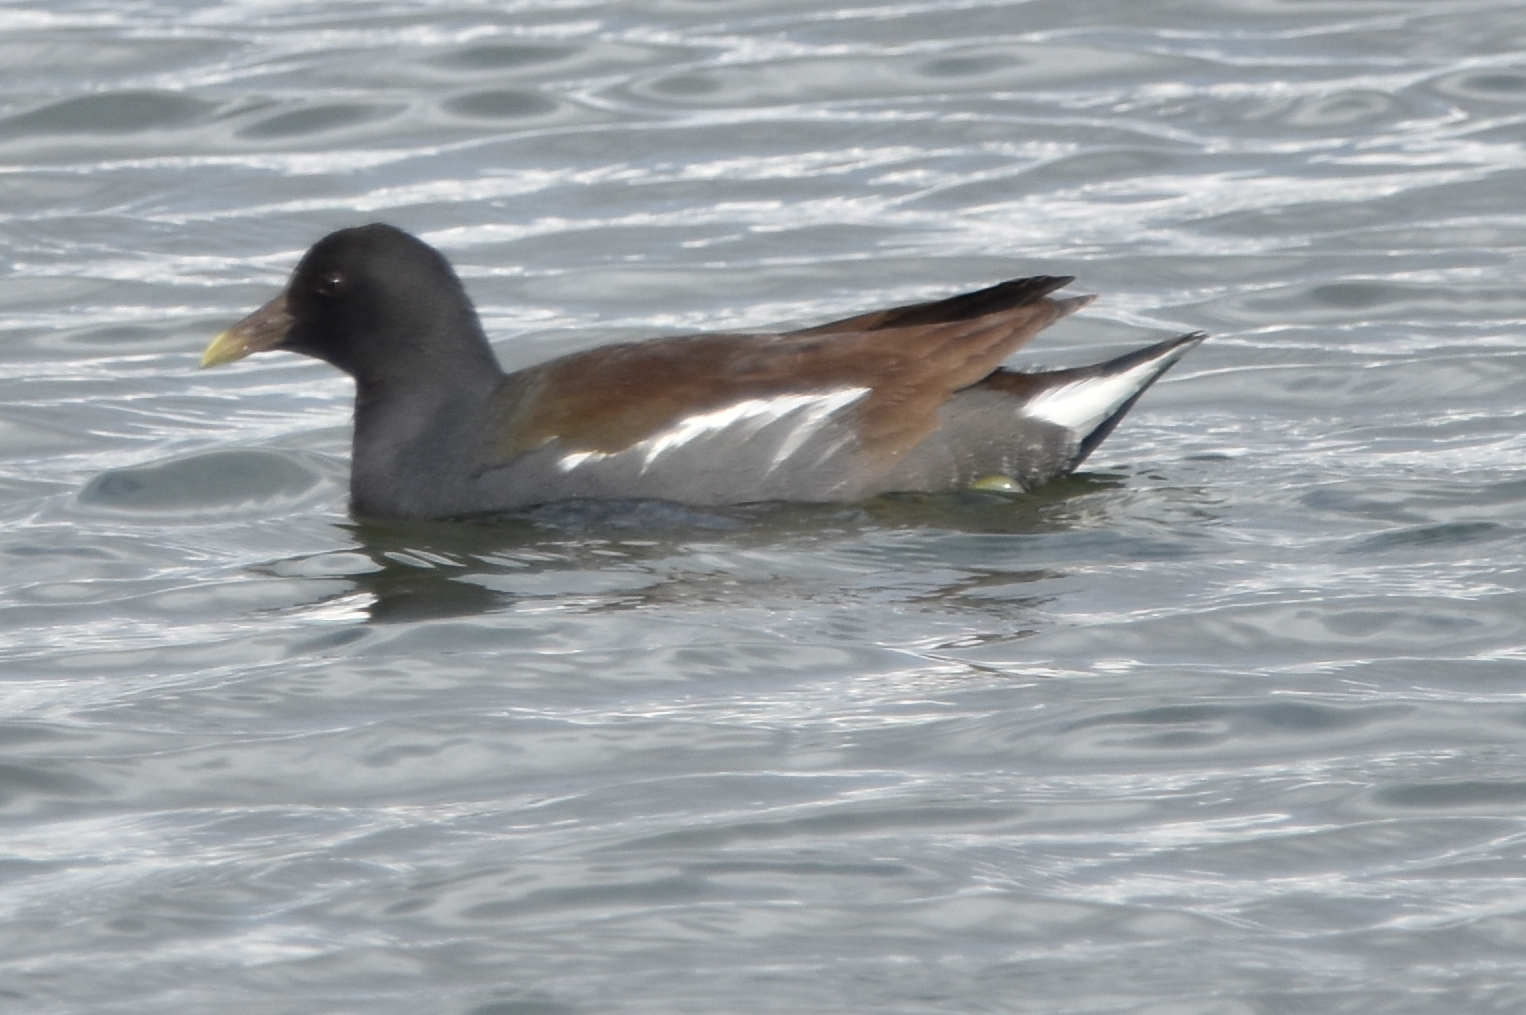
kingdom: Animalia
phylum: Chordata
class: Aves
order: Gruiformes
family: Rallidae
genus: Gallinula
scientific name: Gallinula chloropus
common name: Common moorhen
